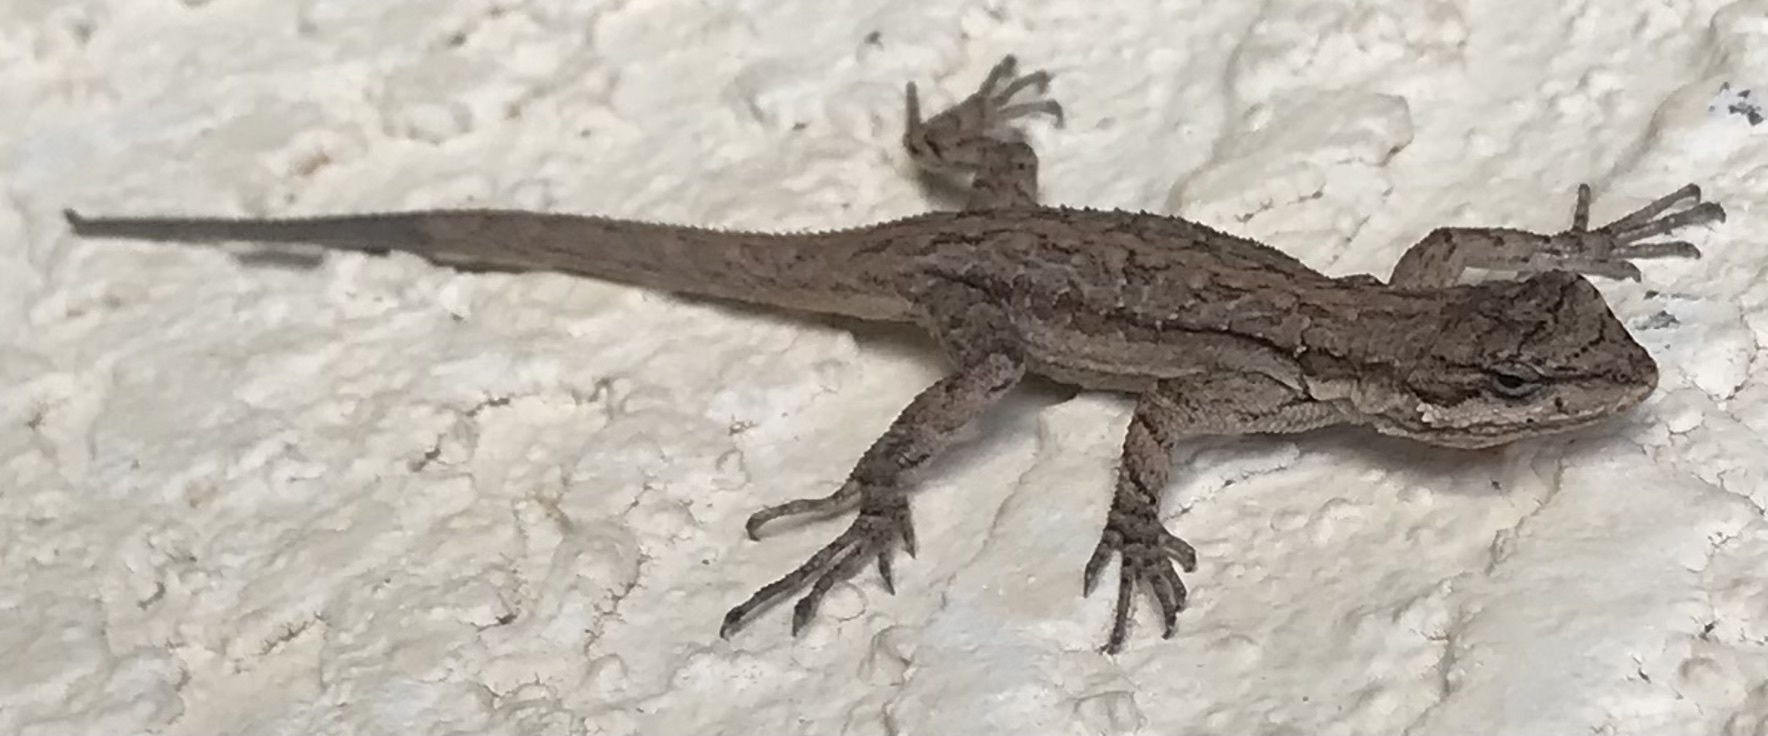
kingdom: Animalia
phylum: Chordata
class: Squamata
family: Phrynosomatidae
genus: Urosaurus
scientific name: Urosaurus ornatus
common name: Ornate tree lizard
